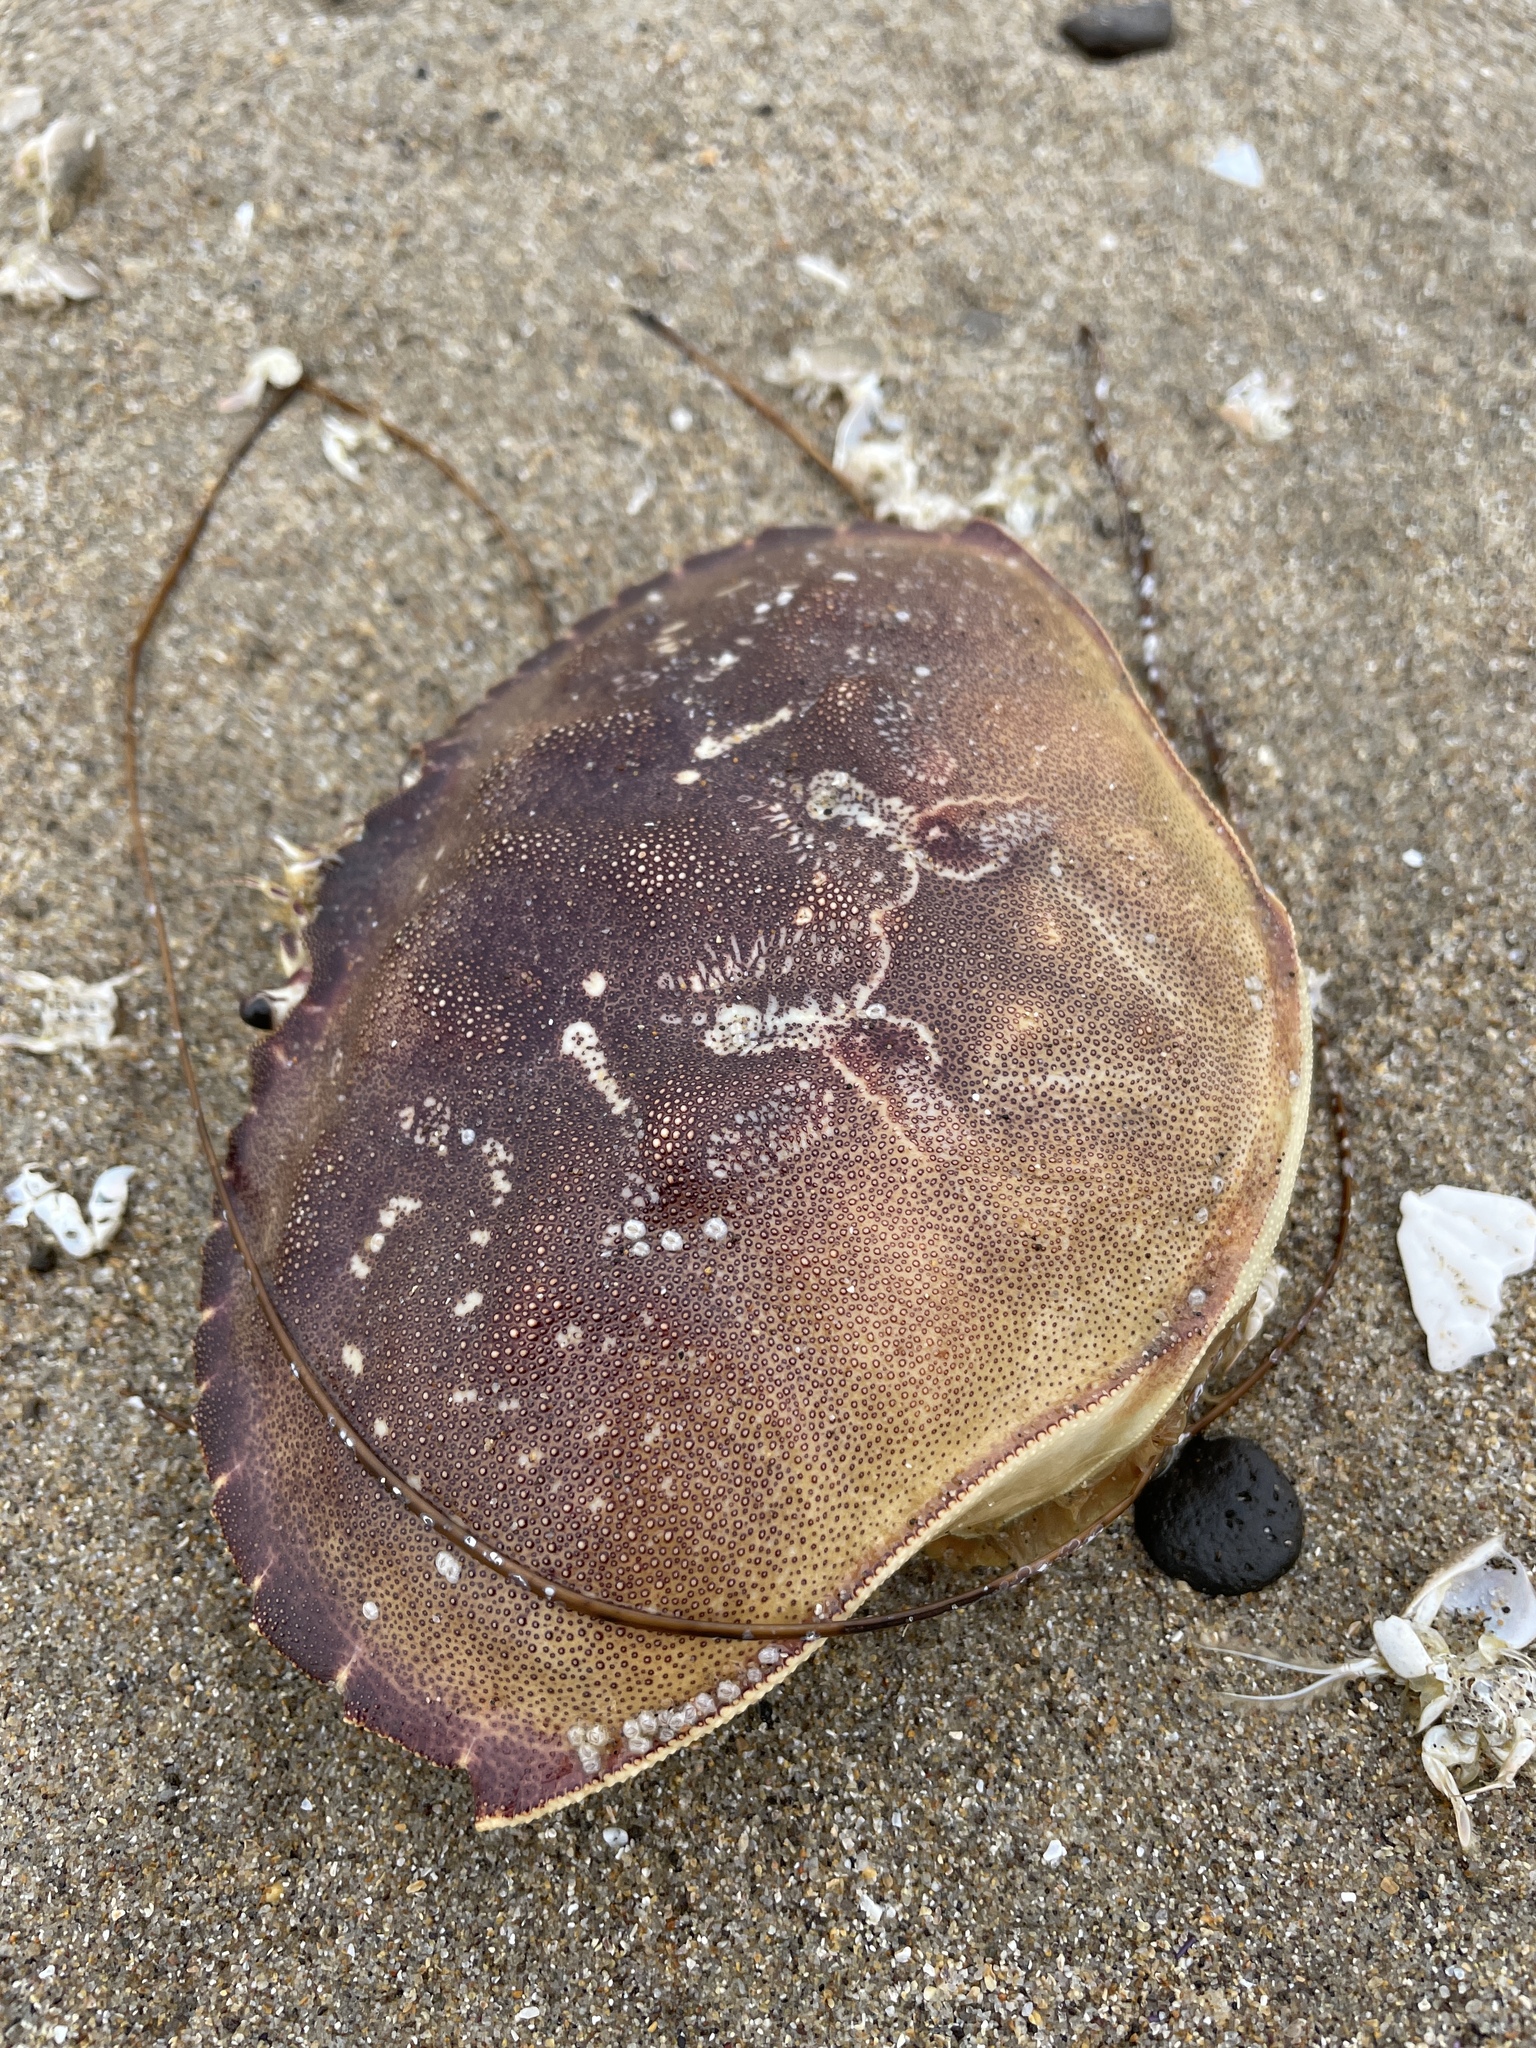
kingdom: Animalia
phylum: Arthropoda
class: Malacostraca
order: Decapoda
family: Cancridae
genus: Metacarcinus
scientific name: Metacarcinus magister
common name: Californian crab
